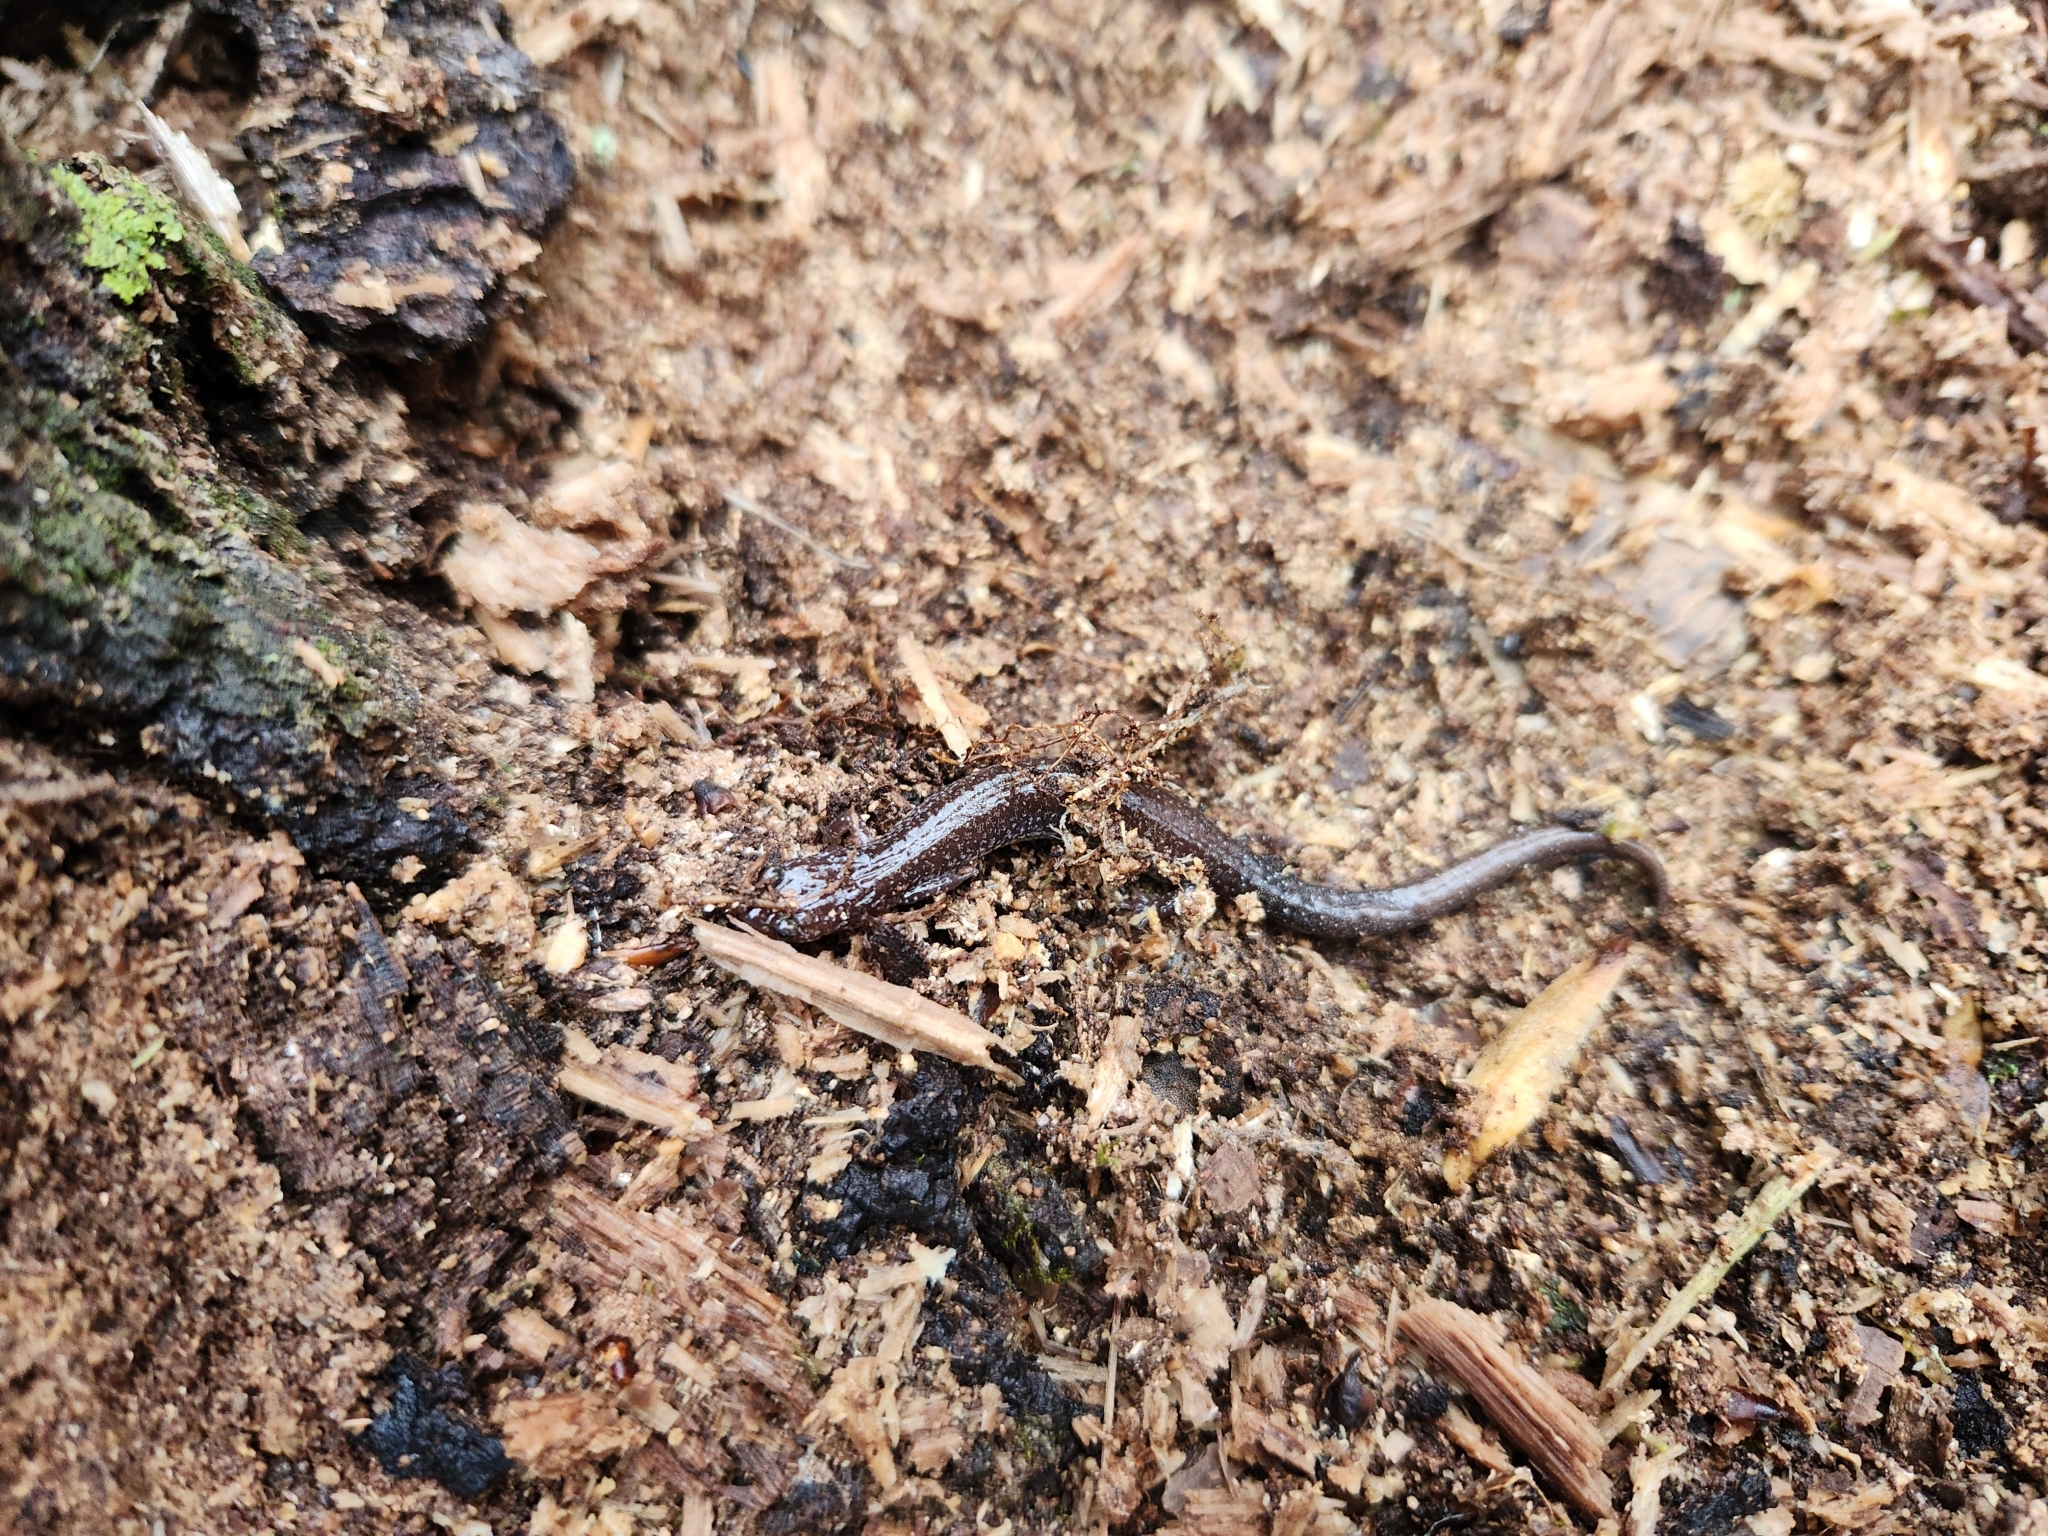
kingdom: Animalia
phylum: Chordata
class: Amphibia
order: Caudata
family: Plethodontidae
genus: Plethodon
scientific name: Plethodon cinereus
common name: Redback salamander
